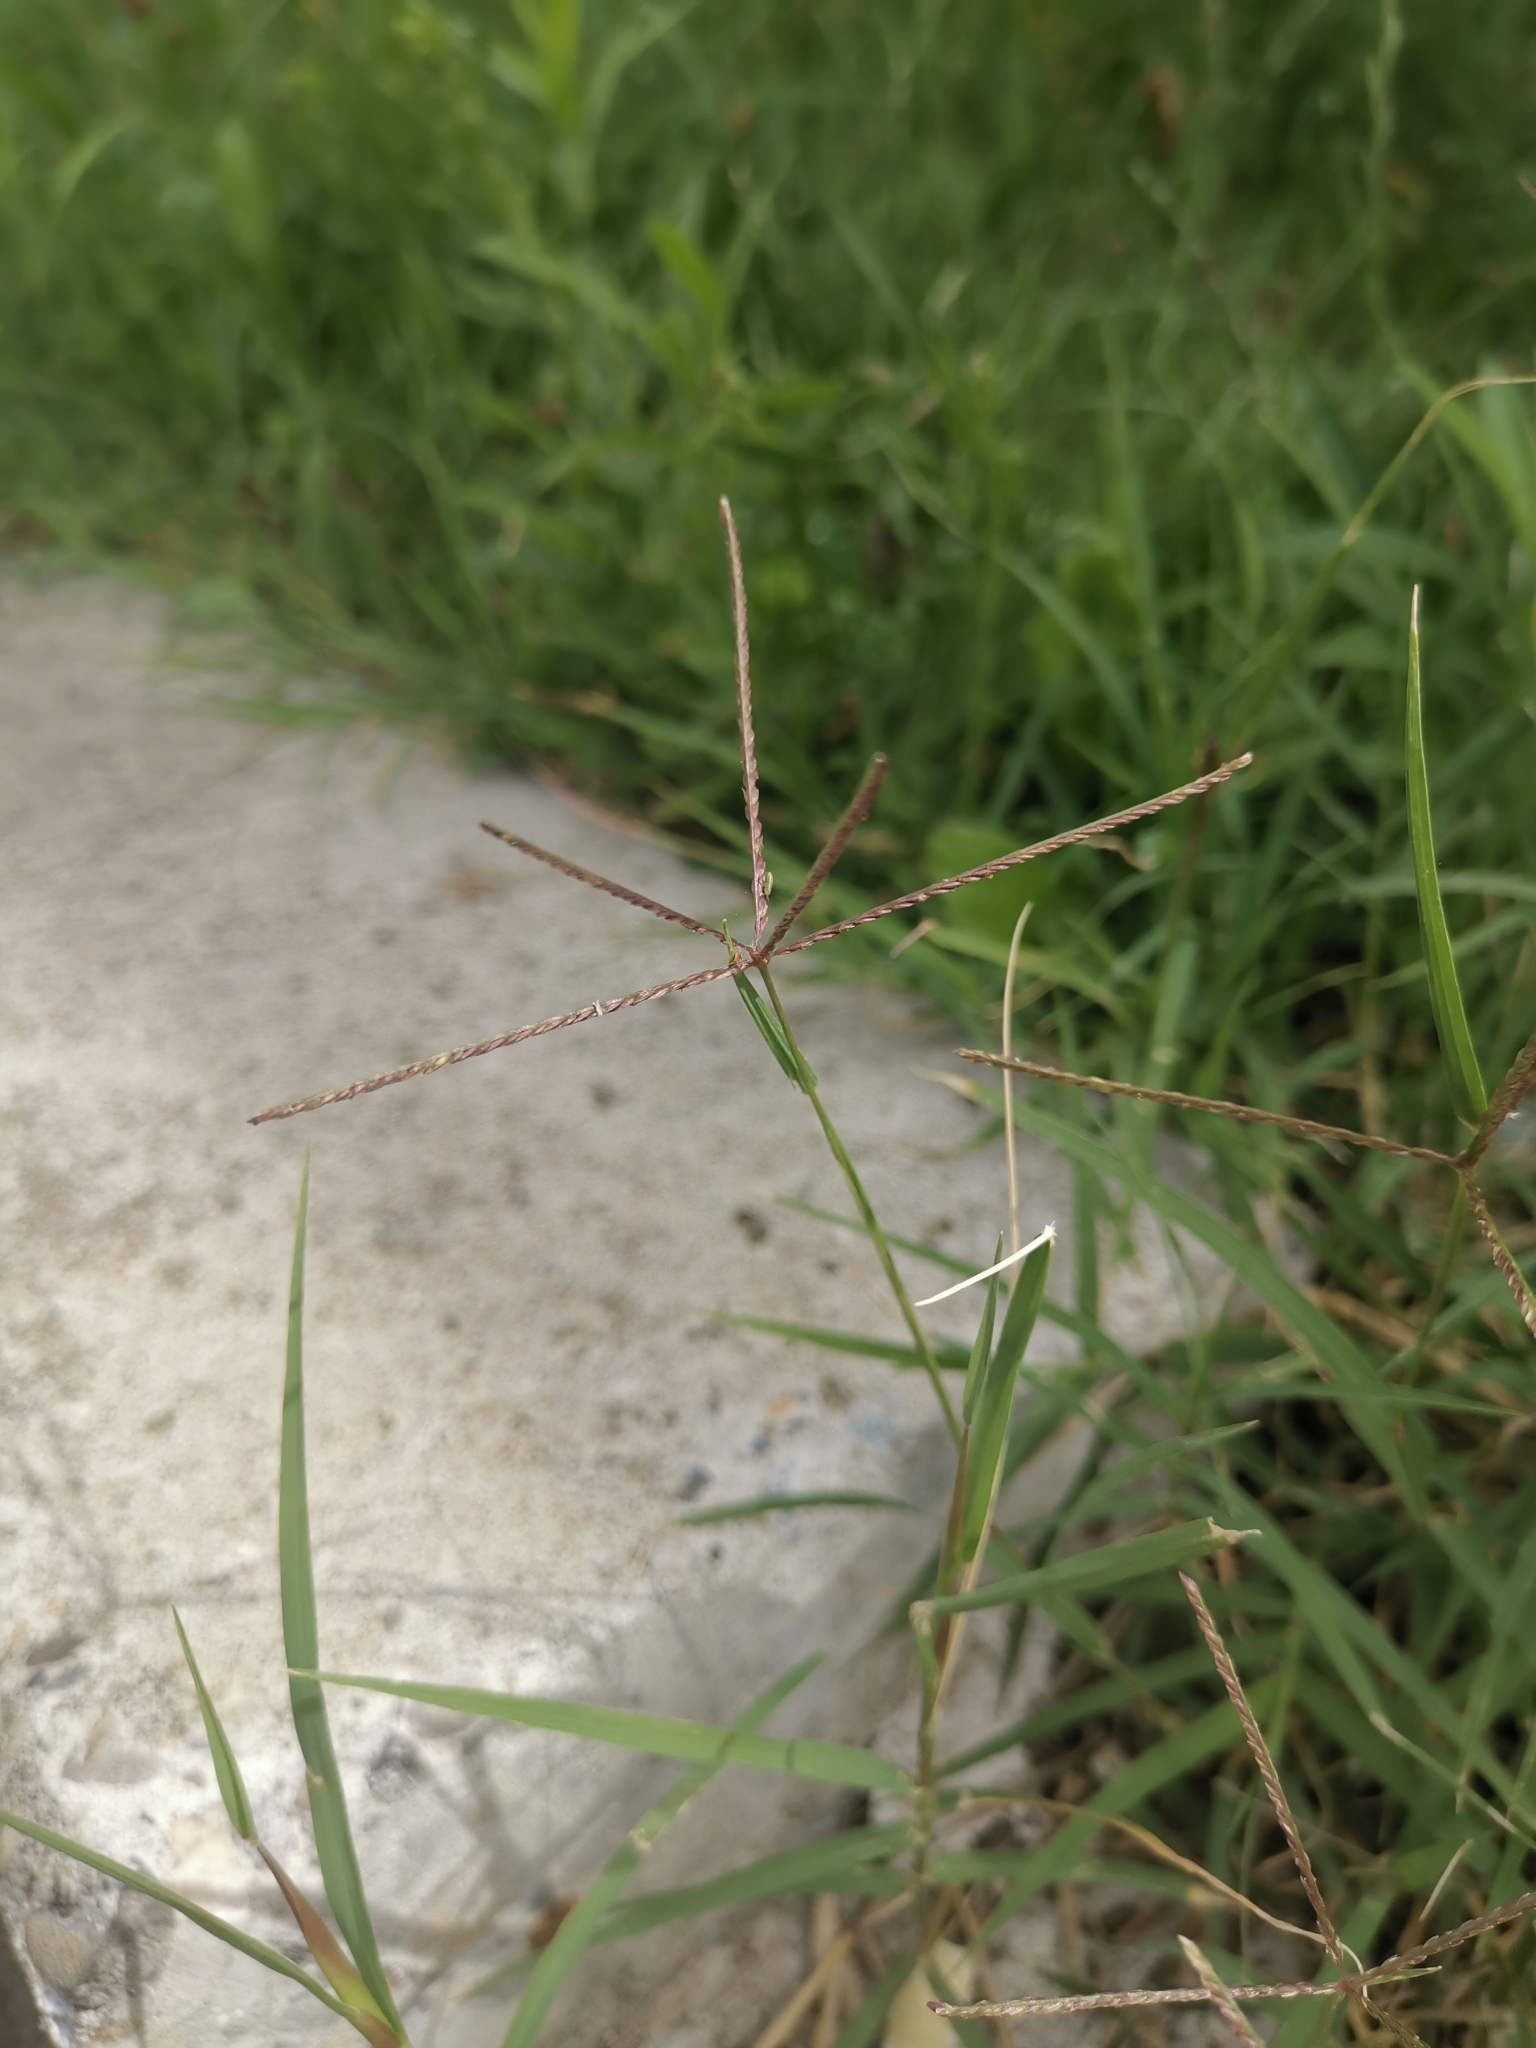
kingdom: Plantae
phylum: Tracheophyta
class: Liliopsida
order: Poales
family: Poaceae
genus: Cynodon
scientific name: Cynodon dactylon
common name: Bermuda grass
